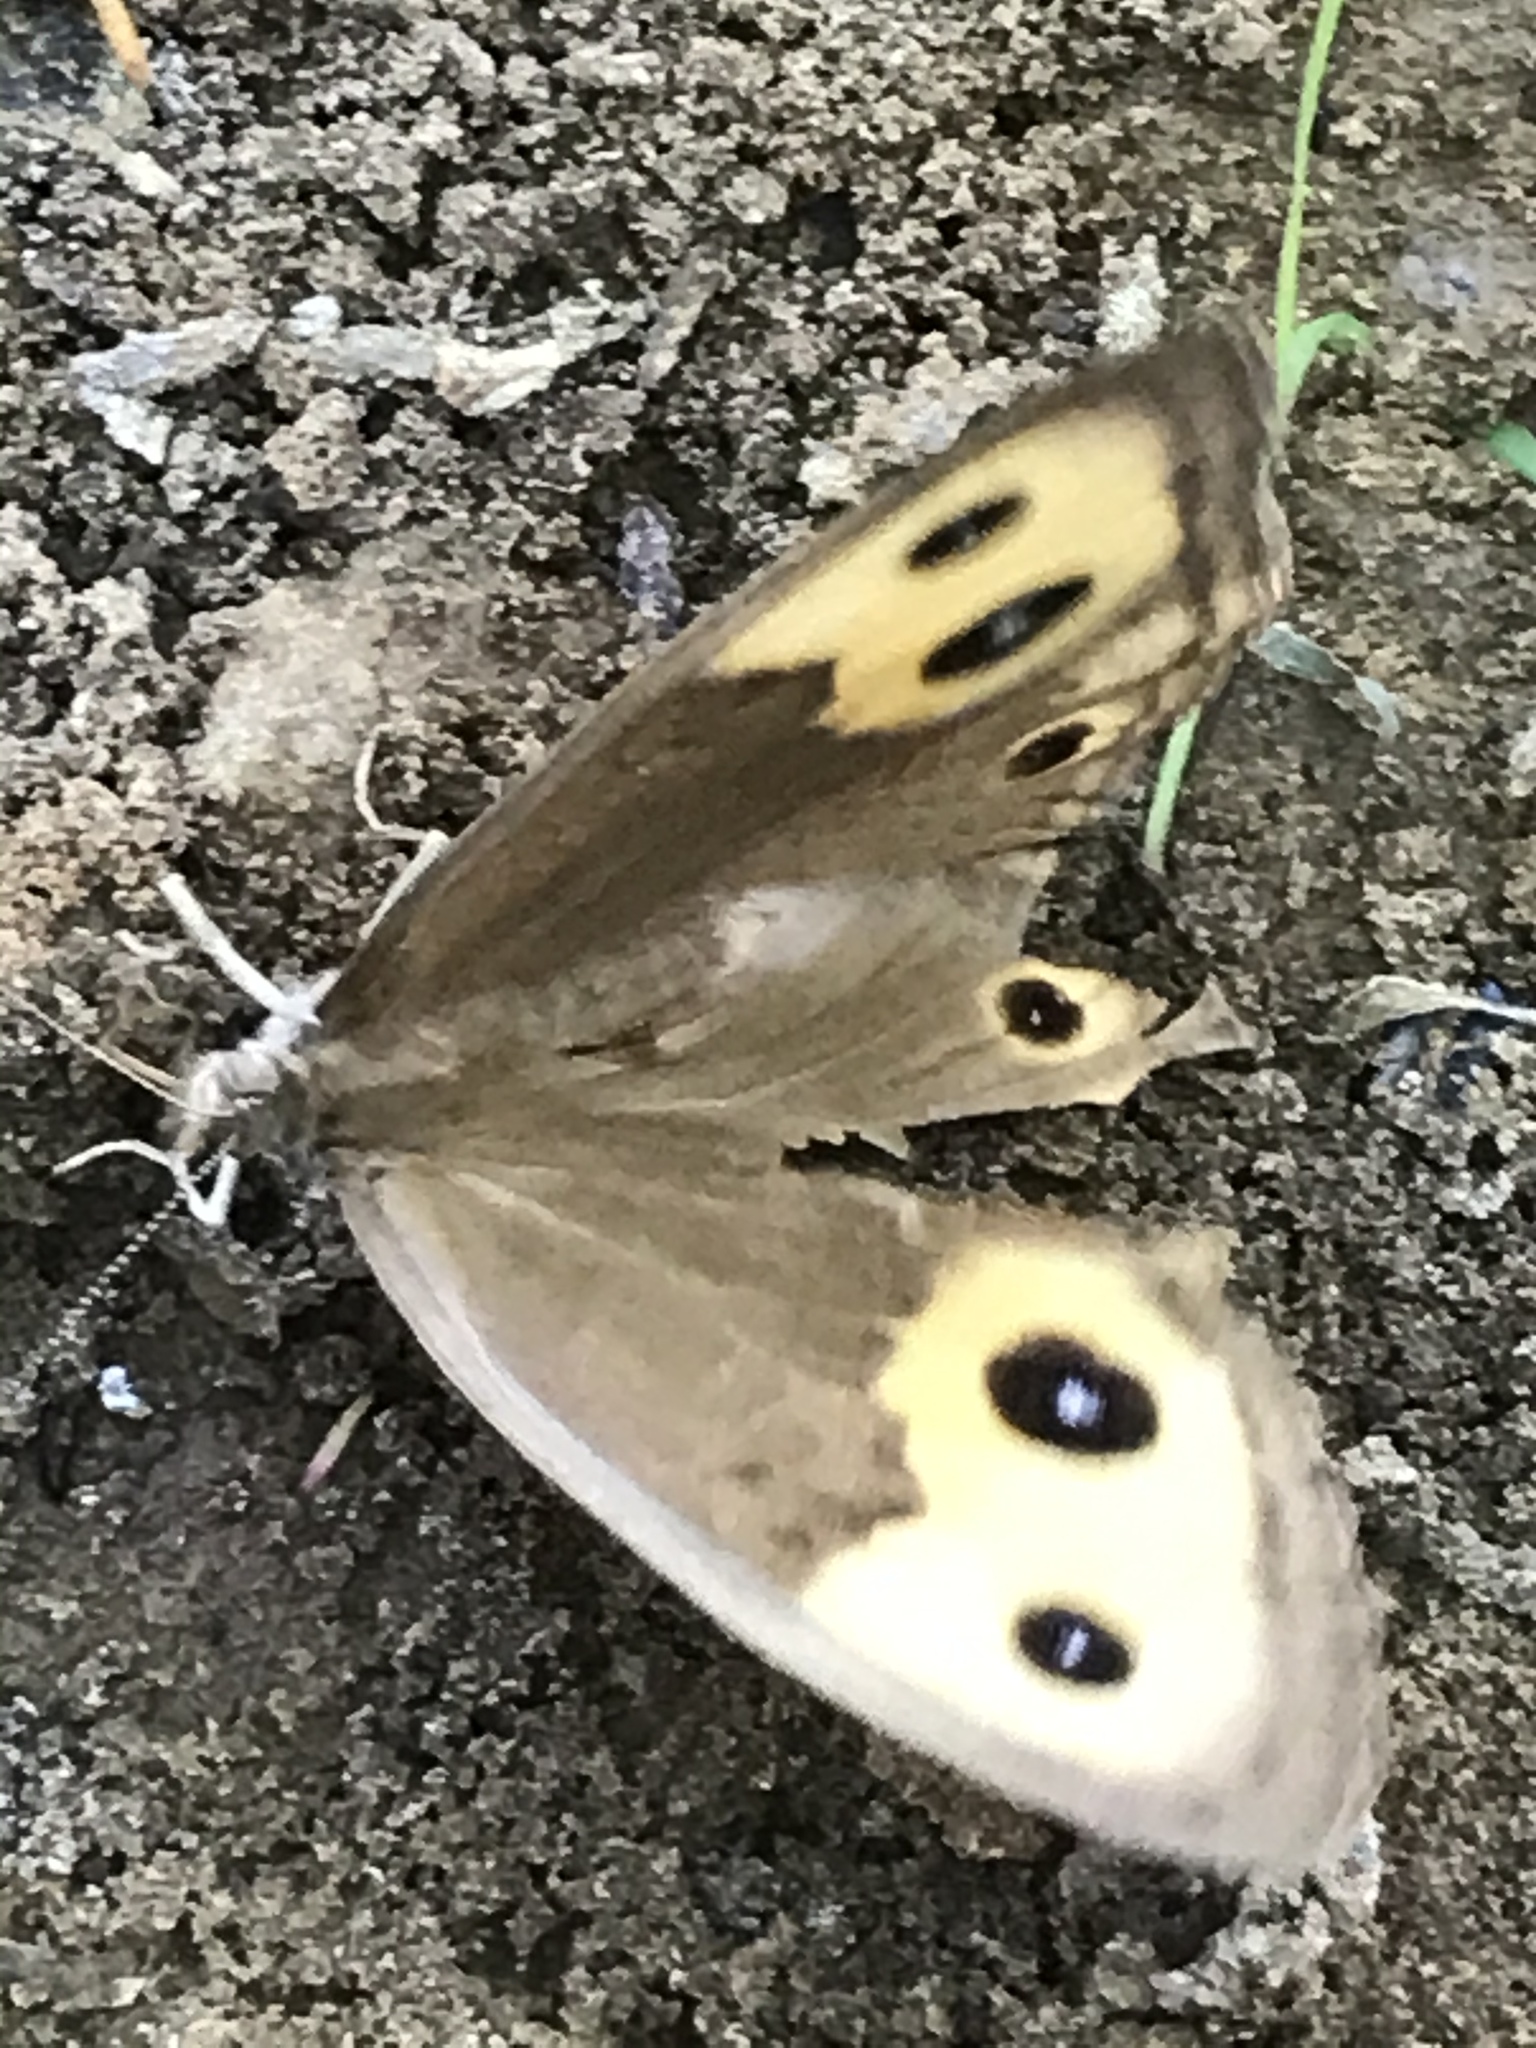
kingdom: Animalia
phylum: Arthropoda
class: Insecta
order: Lepidoptera
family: Nymphalidae
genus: Cercyonis
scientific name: Cercyonis pegala
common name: Common wood-nymph
